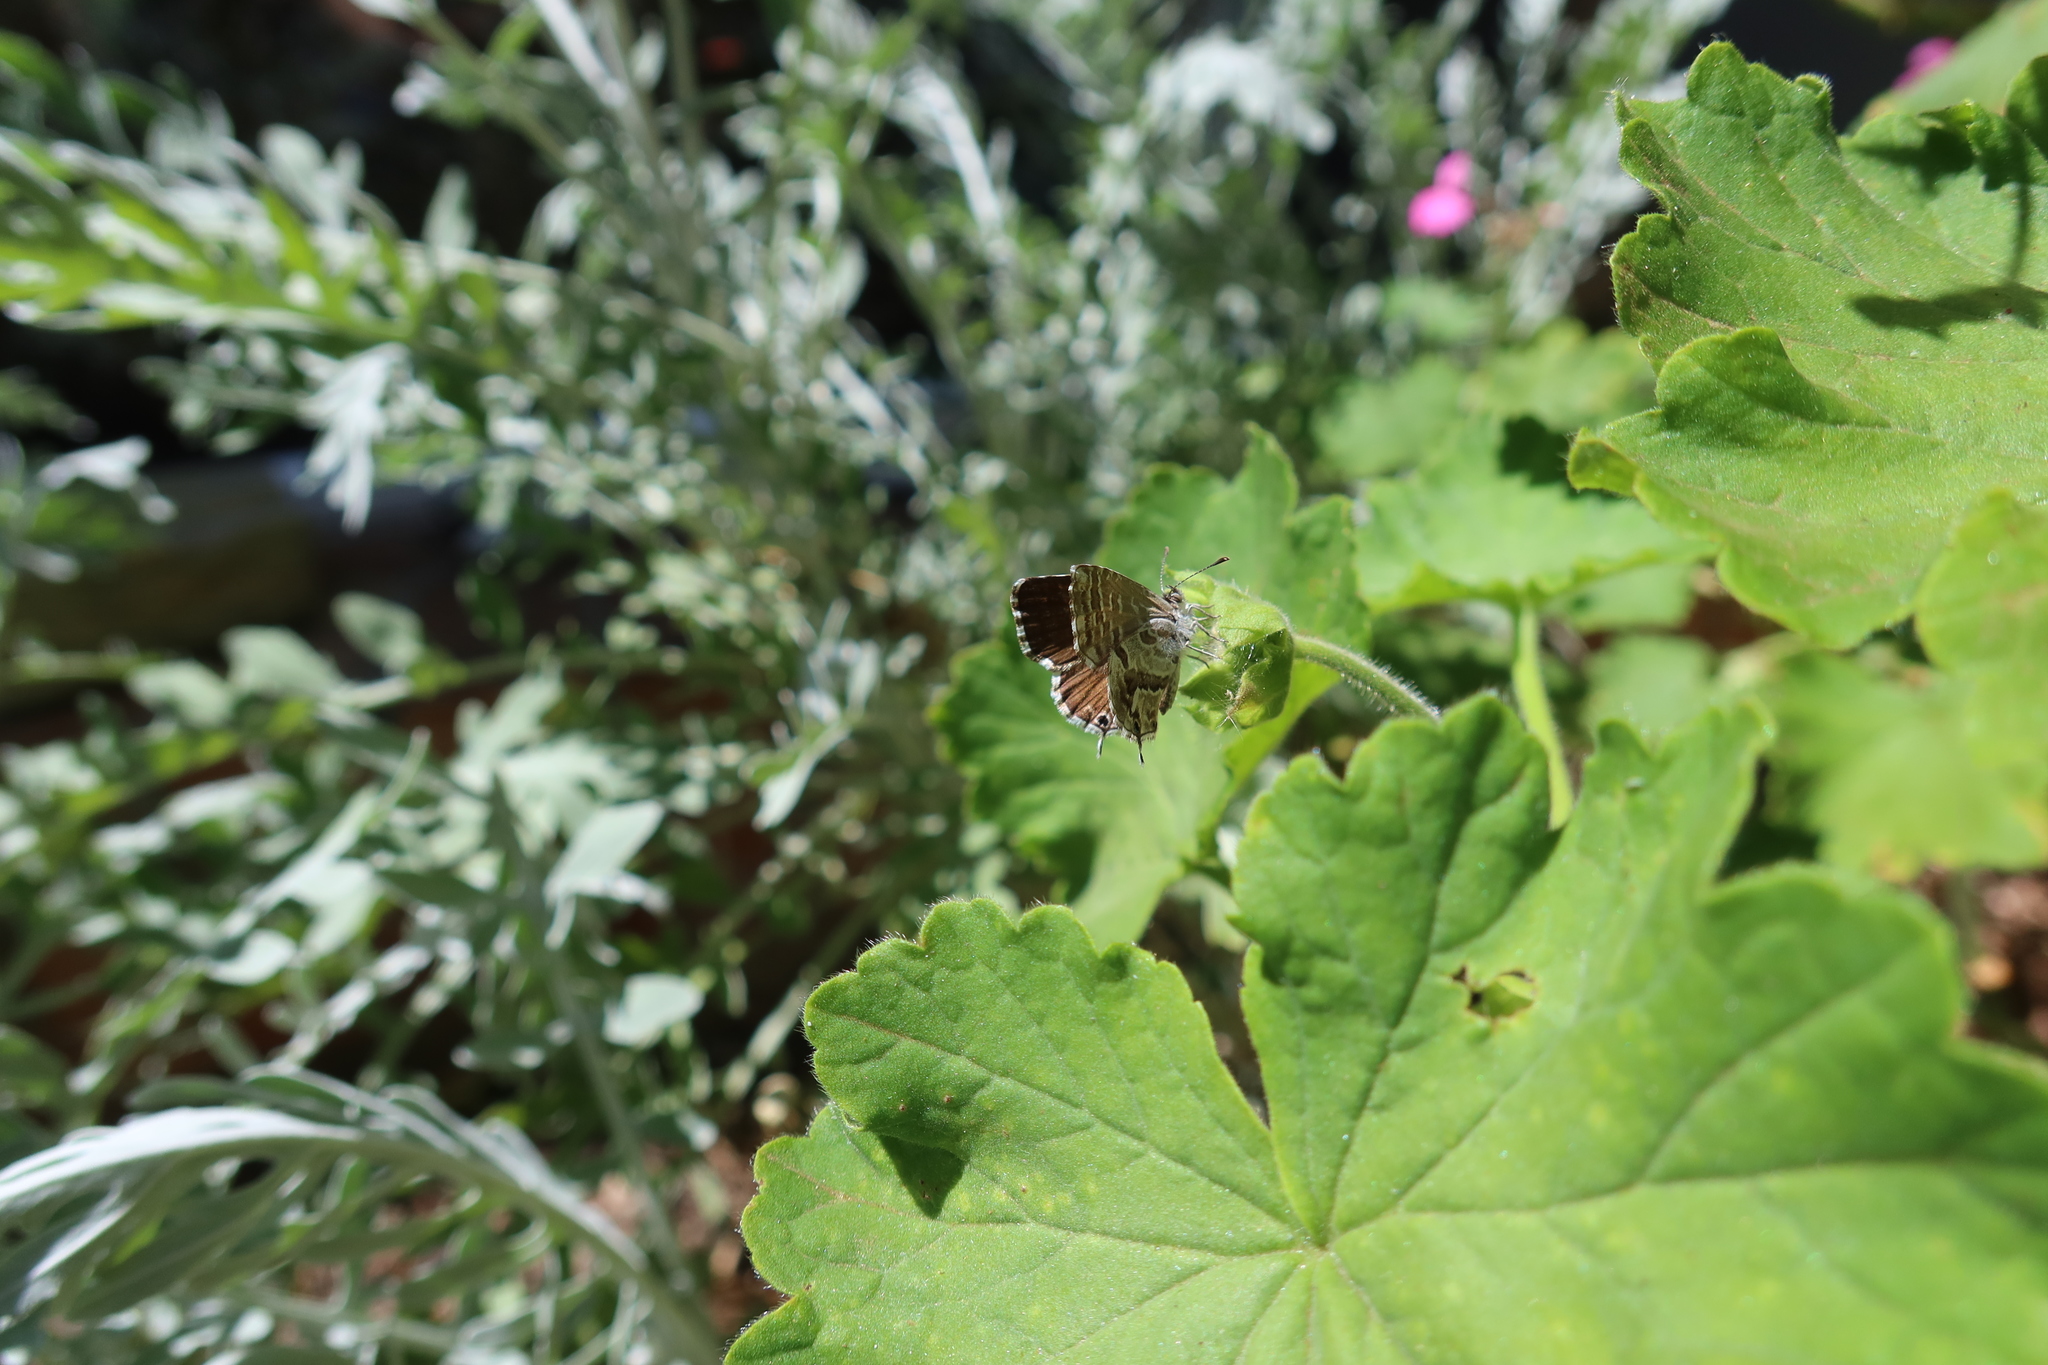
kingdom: Animalia
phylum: Arthropoda
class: Insecta
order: Lepidoptera
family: Lycaenidae
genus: Cacyreus
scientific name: Cacyreus marshalli
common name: Geranium bronze
